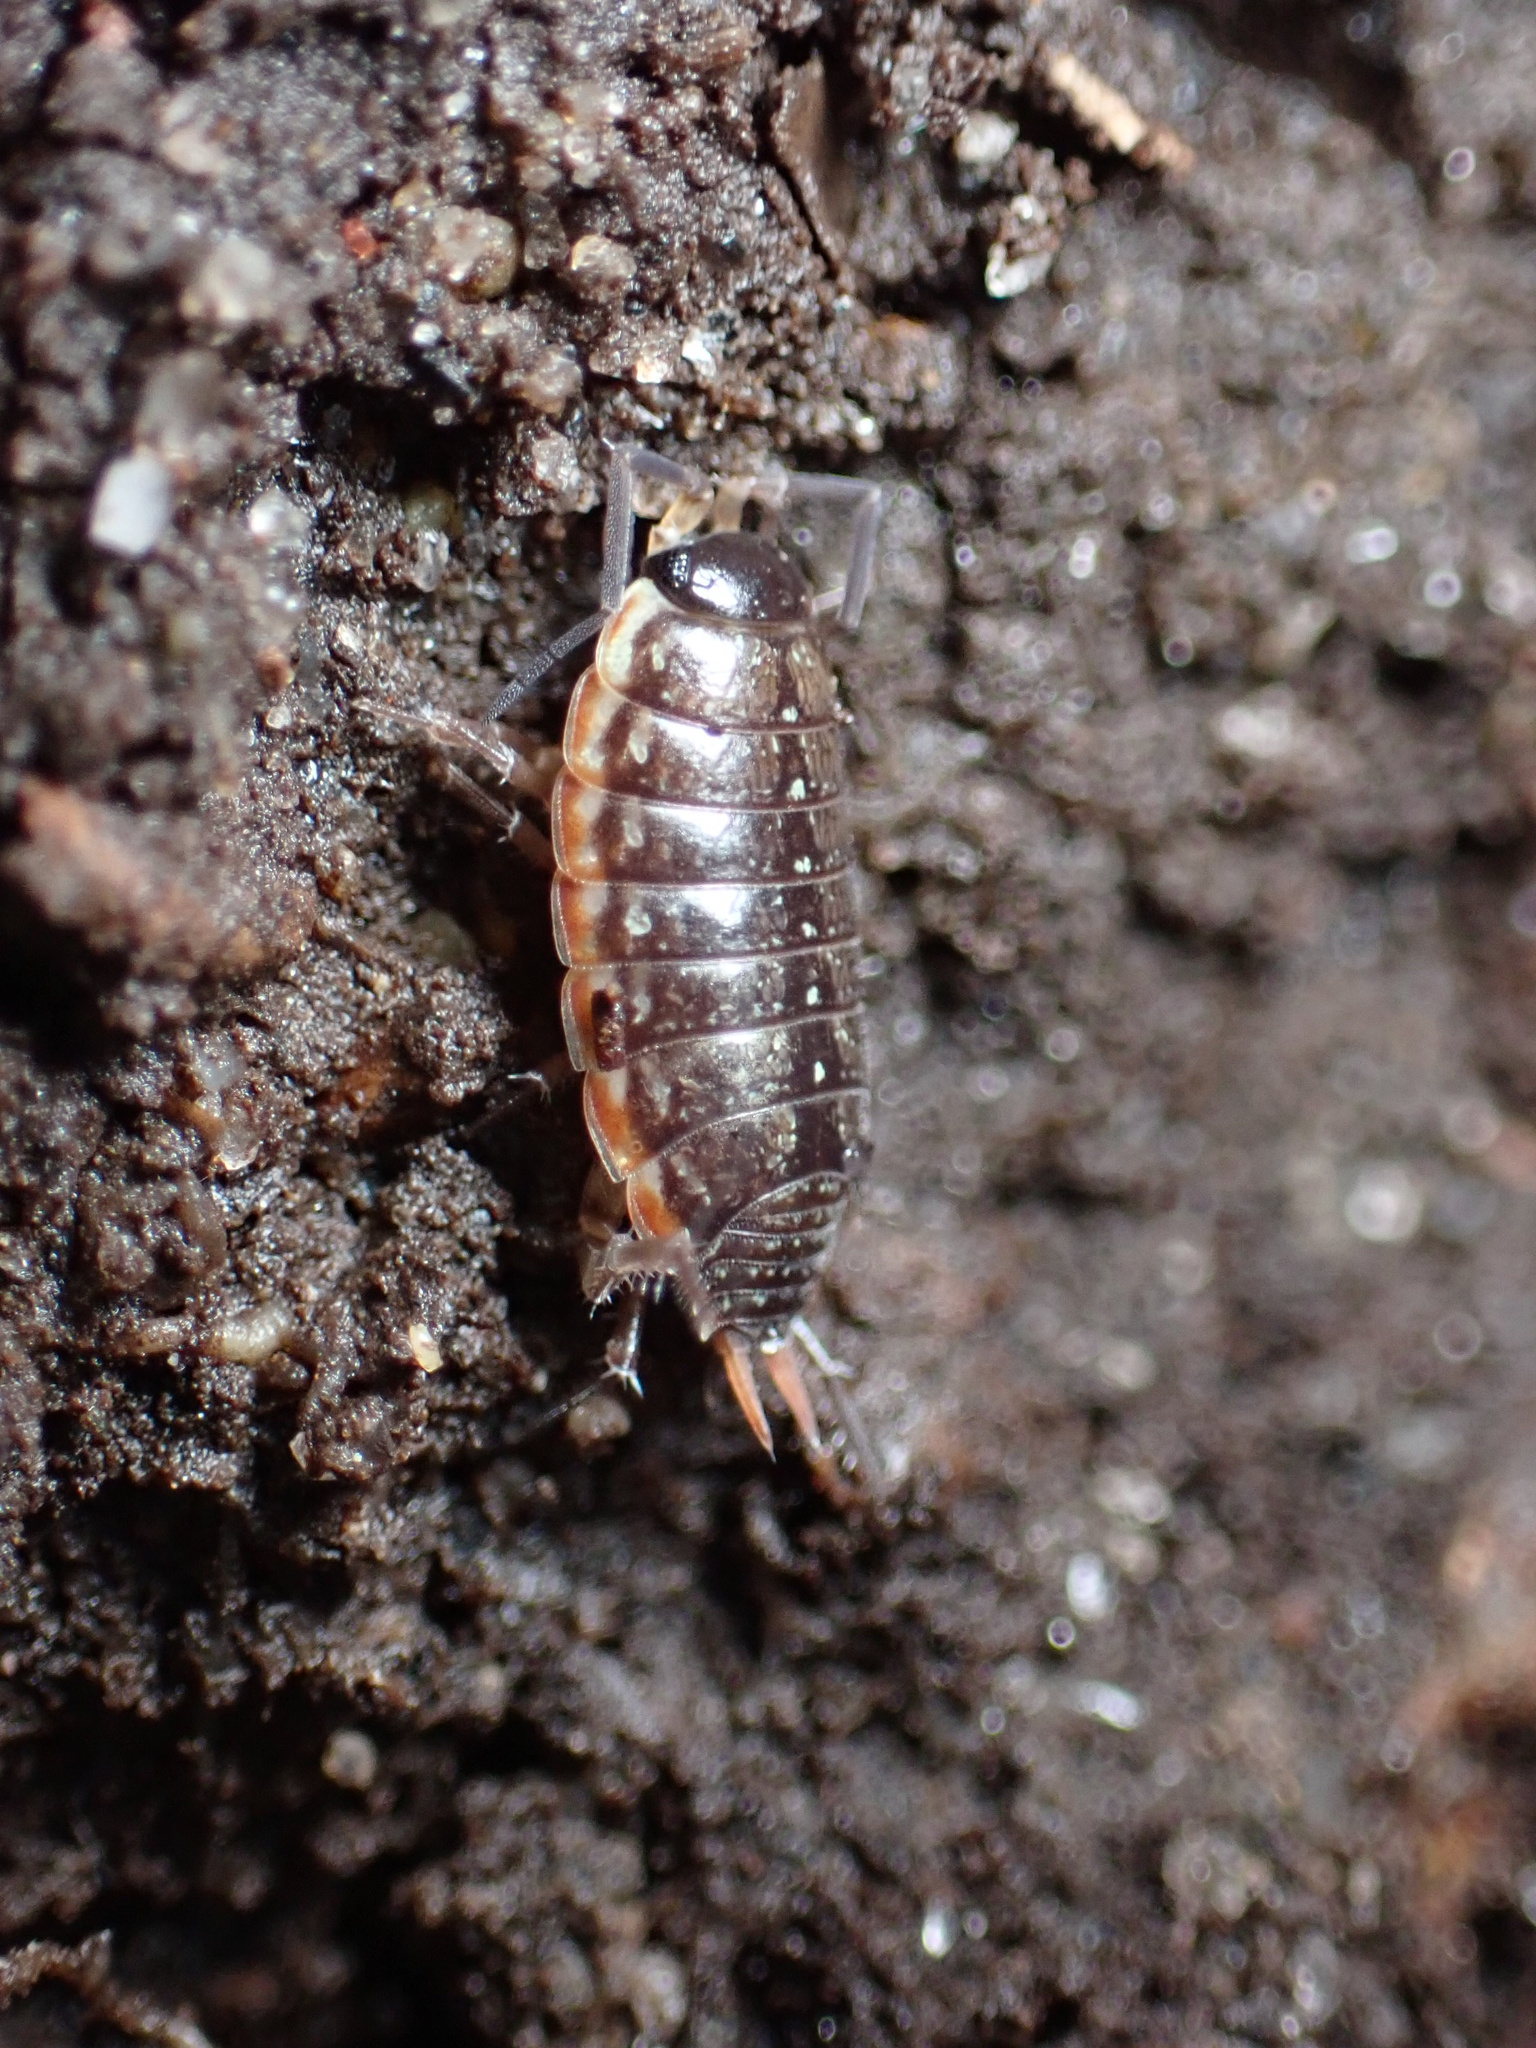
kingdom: Animalia
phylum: Arthropoda
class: Malacostraca
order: Isopoda
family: Philosciidae
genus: Philoscia
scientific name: Philoscia muscorum
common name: Common striped woodlouse
